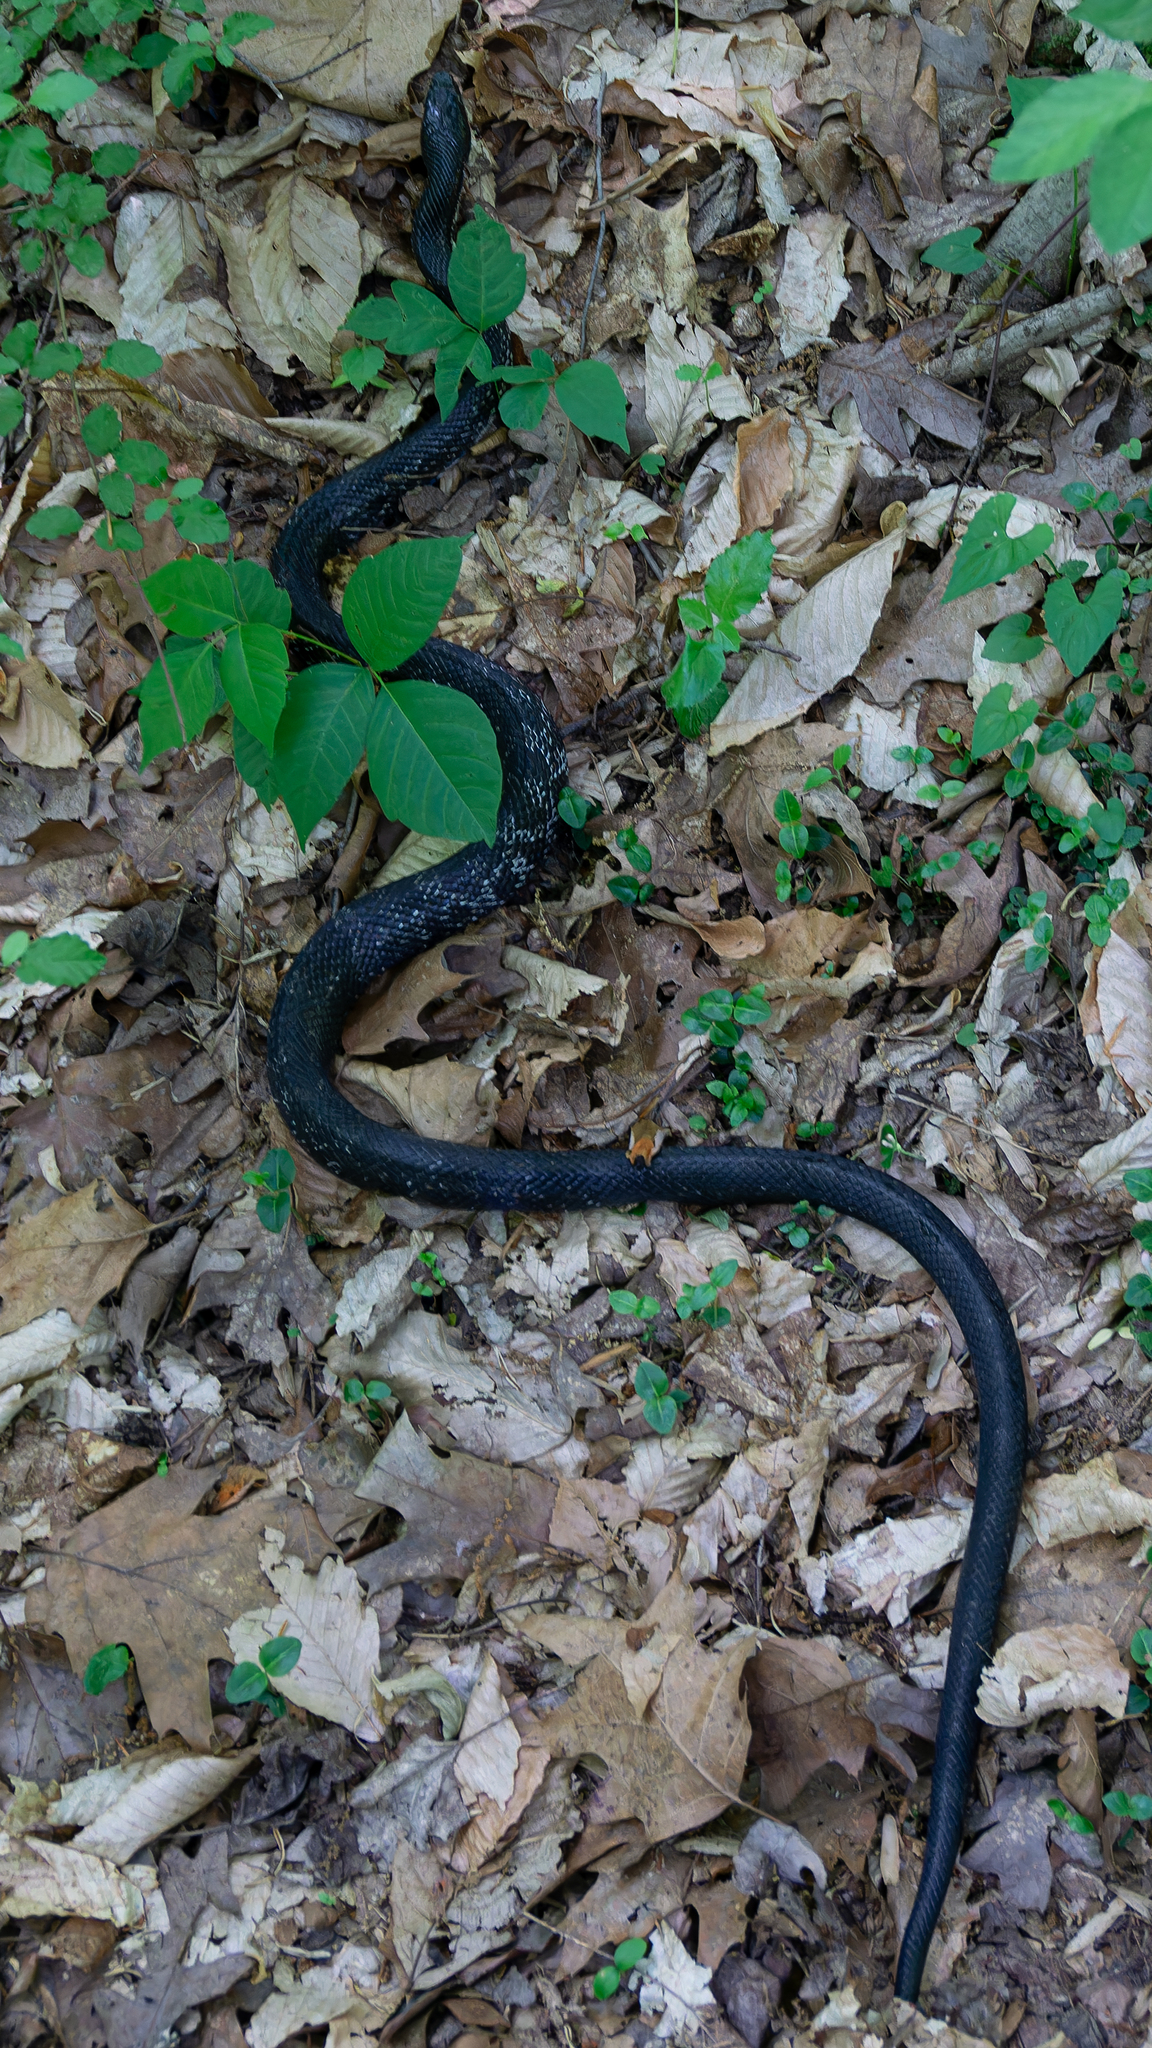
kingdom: Animalia
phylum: Chordata
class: Squamata
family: Colubridae
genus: Pantherophis
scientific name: Pantherophis
